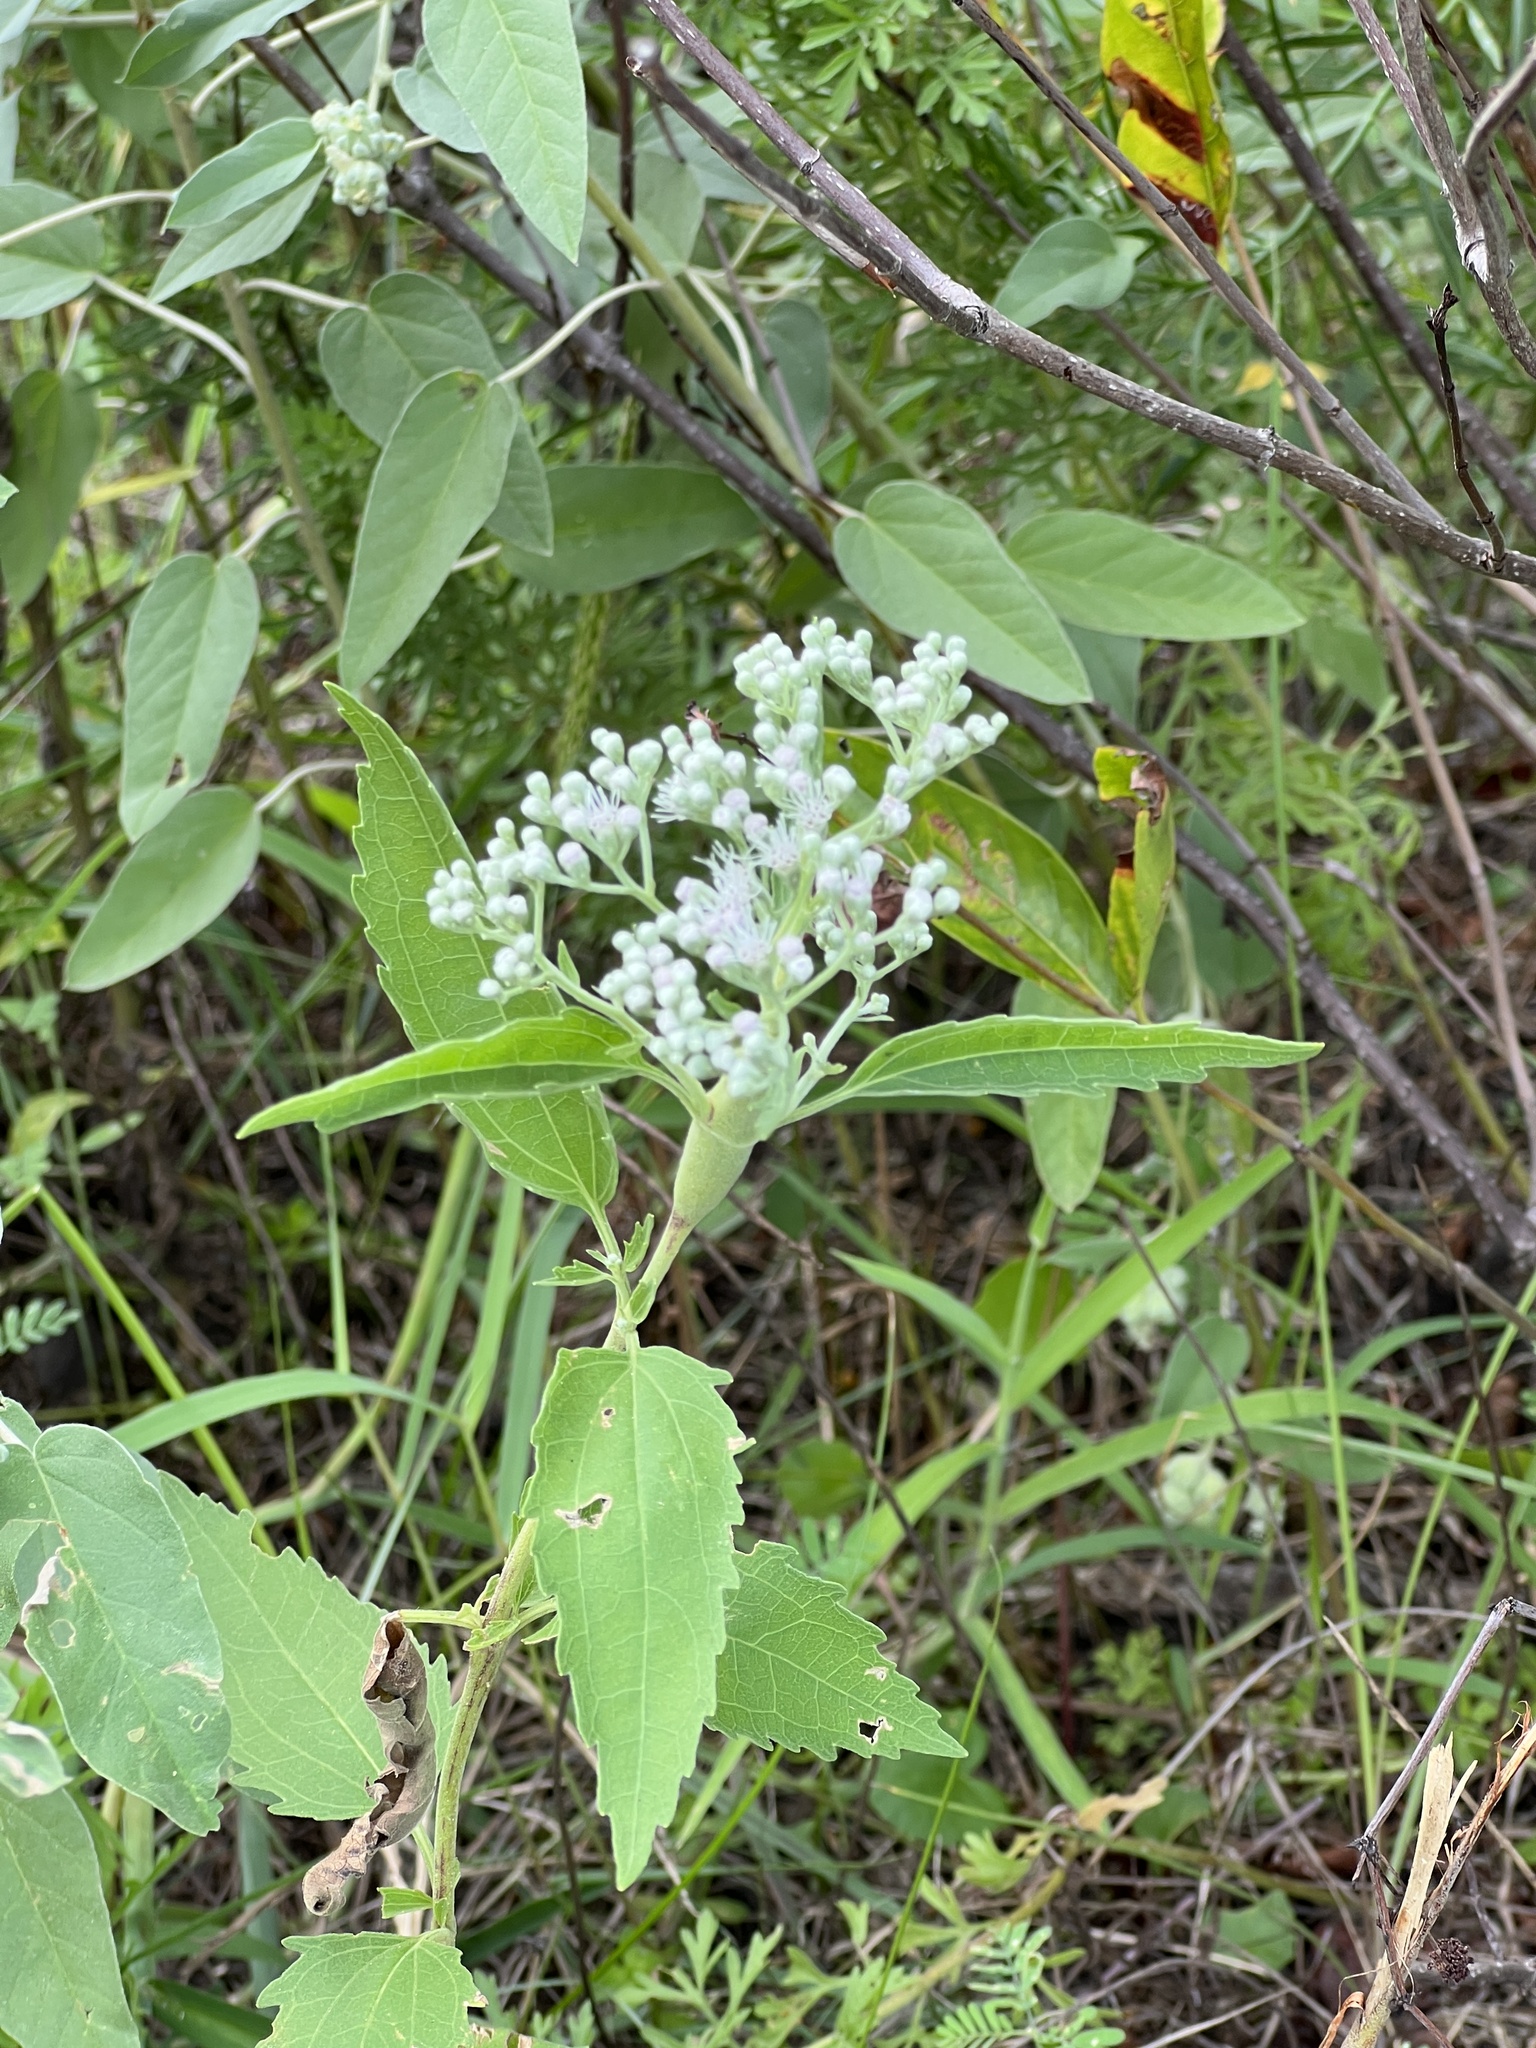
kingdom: Plantae
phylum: Tracheophyta
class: Magnoliopsida
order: Asterales
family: Asteraceae
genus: Eupatorium
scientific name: Eupatorium serotinum
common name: Late boneset
